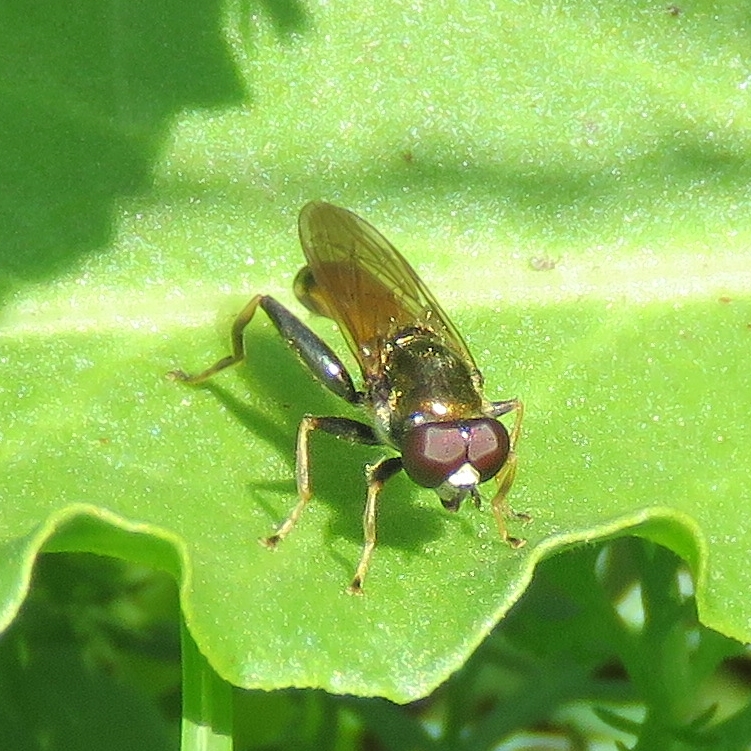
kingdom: Animalia
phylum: Arthropoda
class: Insecta
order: Diptera
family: Syrphidae
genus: Xylota
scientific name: Xylota segnis
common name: Brown-toed forest fly
